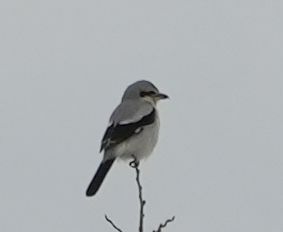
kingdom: Animalia
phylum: Chordata
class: Aves
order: Passeriformes
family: Laniidae
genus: Lanius
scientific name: Lanius borealis
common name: Northern shrike
